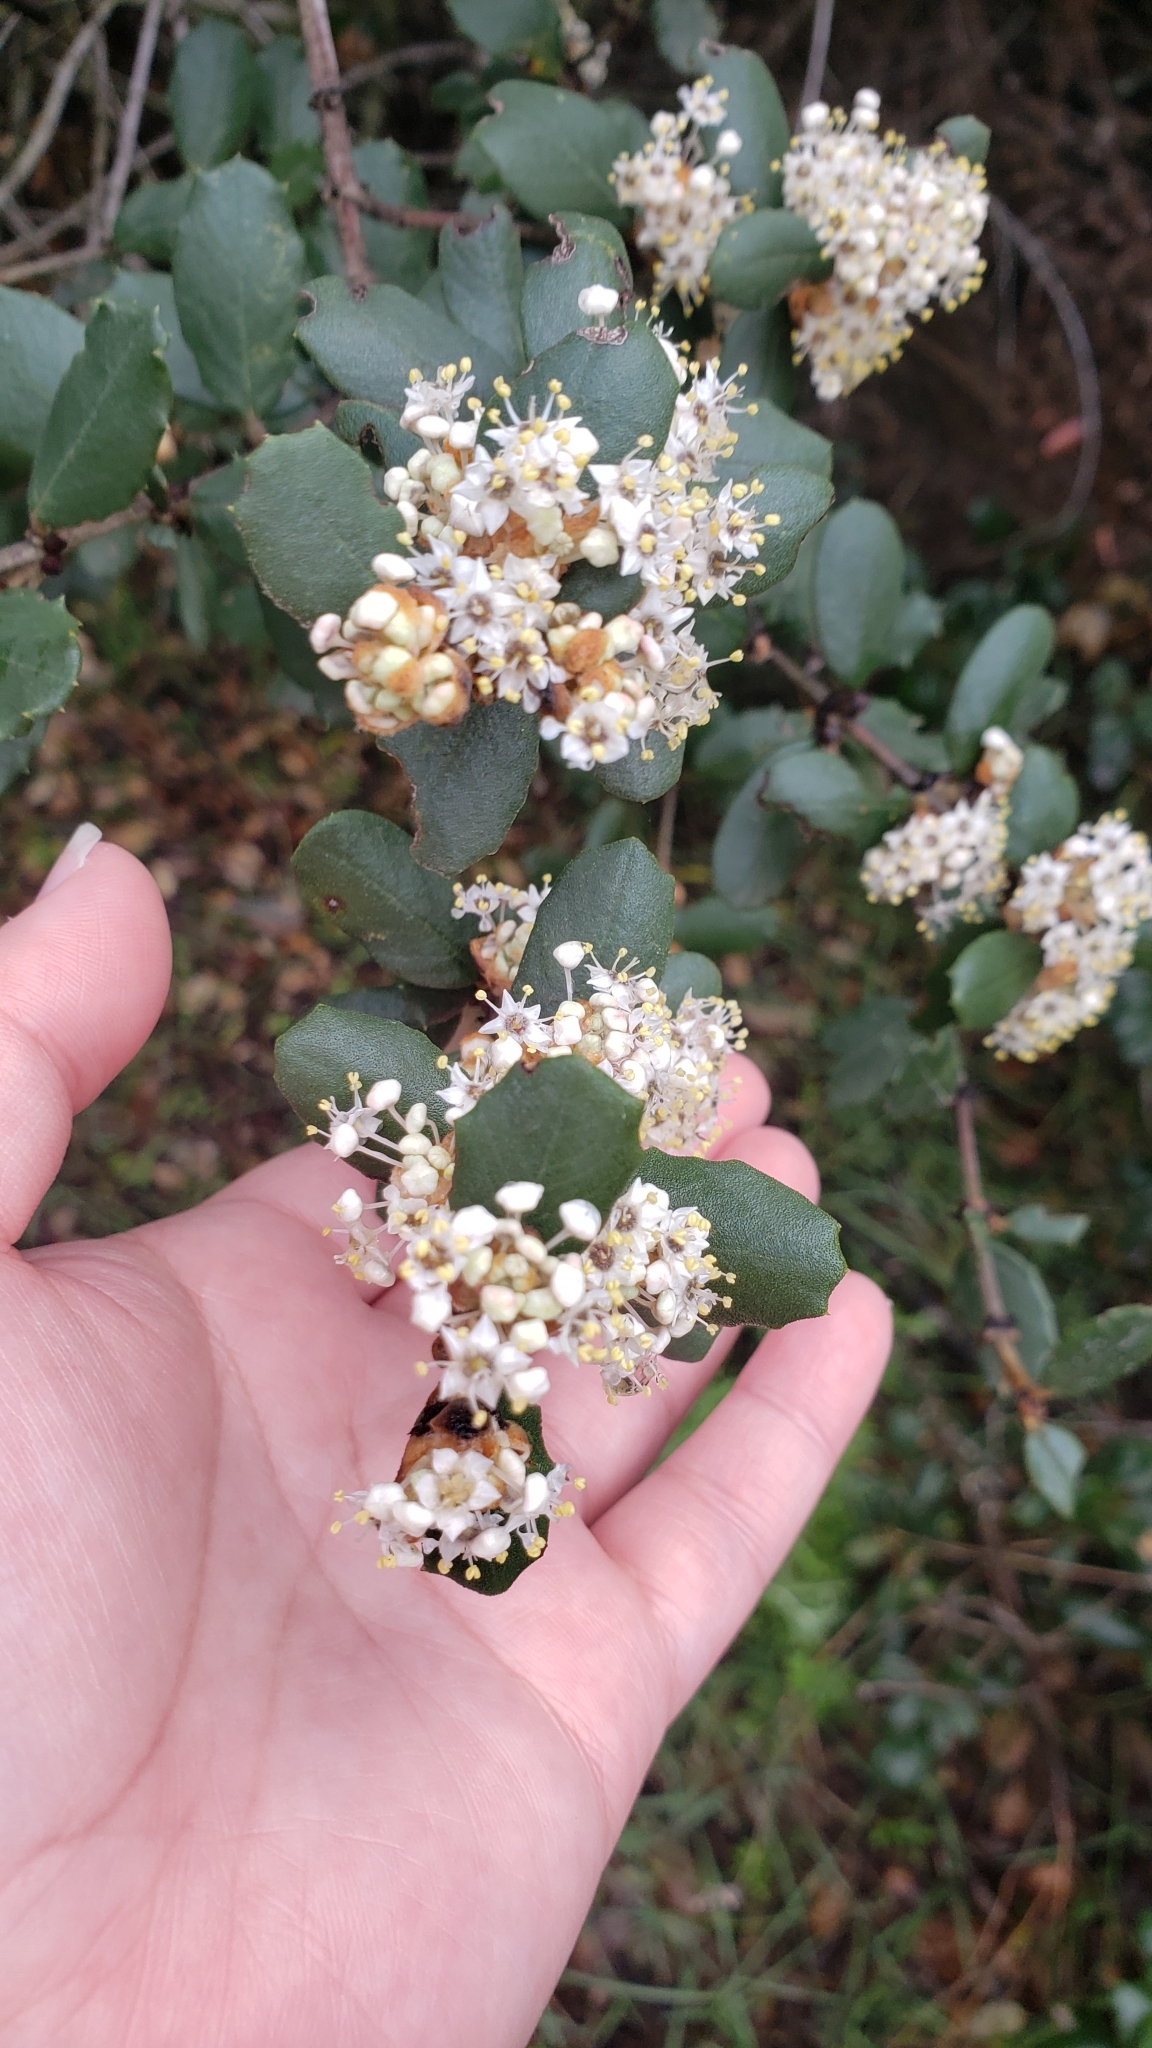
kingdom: Plantae
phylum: Tracheophyta
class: Magnoliopsida
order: Rosales
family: Rhamnaceae
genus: Ceanothus
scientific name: Ceanothus crassifolius
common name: Hoaryleaf ceanothus
